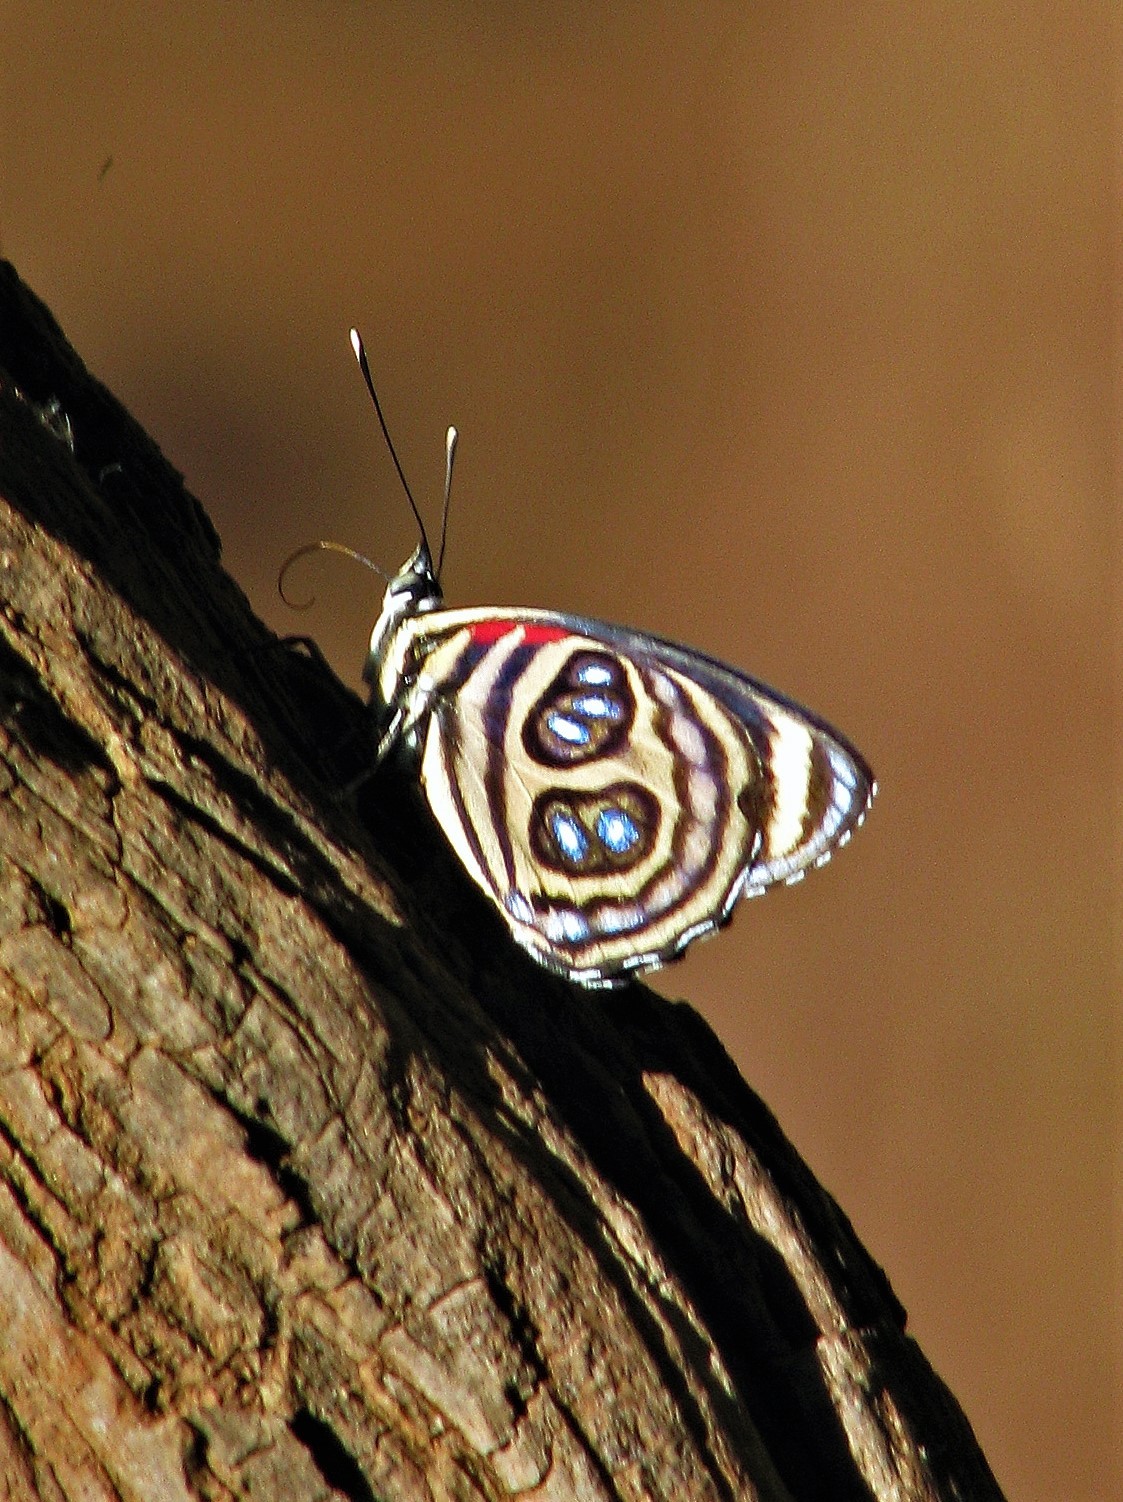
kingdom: Animalia
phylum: Arthropoda
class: Insecta
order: Lepidoptera
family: Nymphalidae
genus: Catagramma
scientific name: Catagramma pygas
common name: Godart's numberwing
